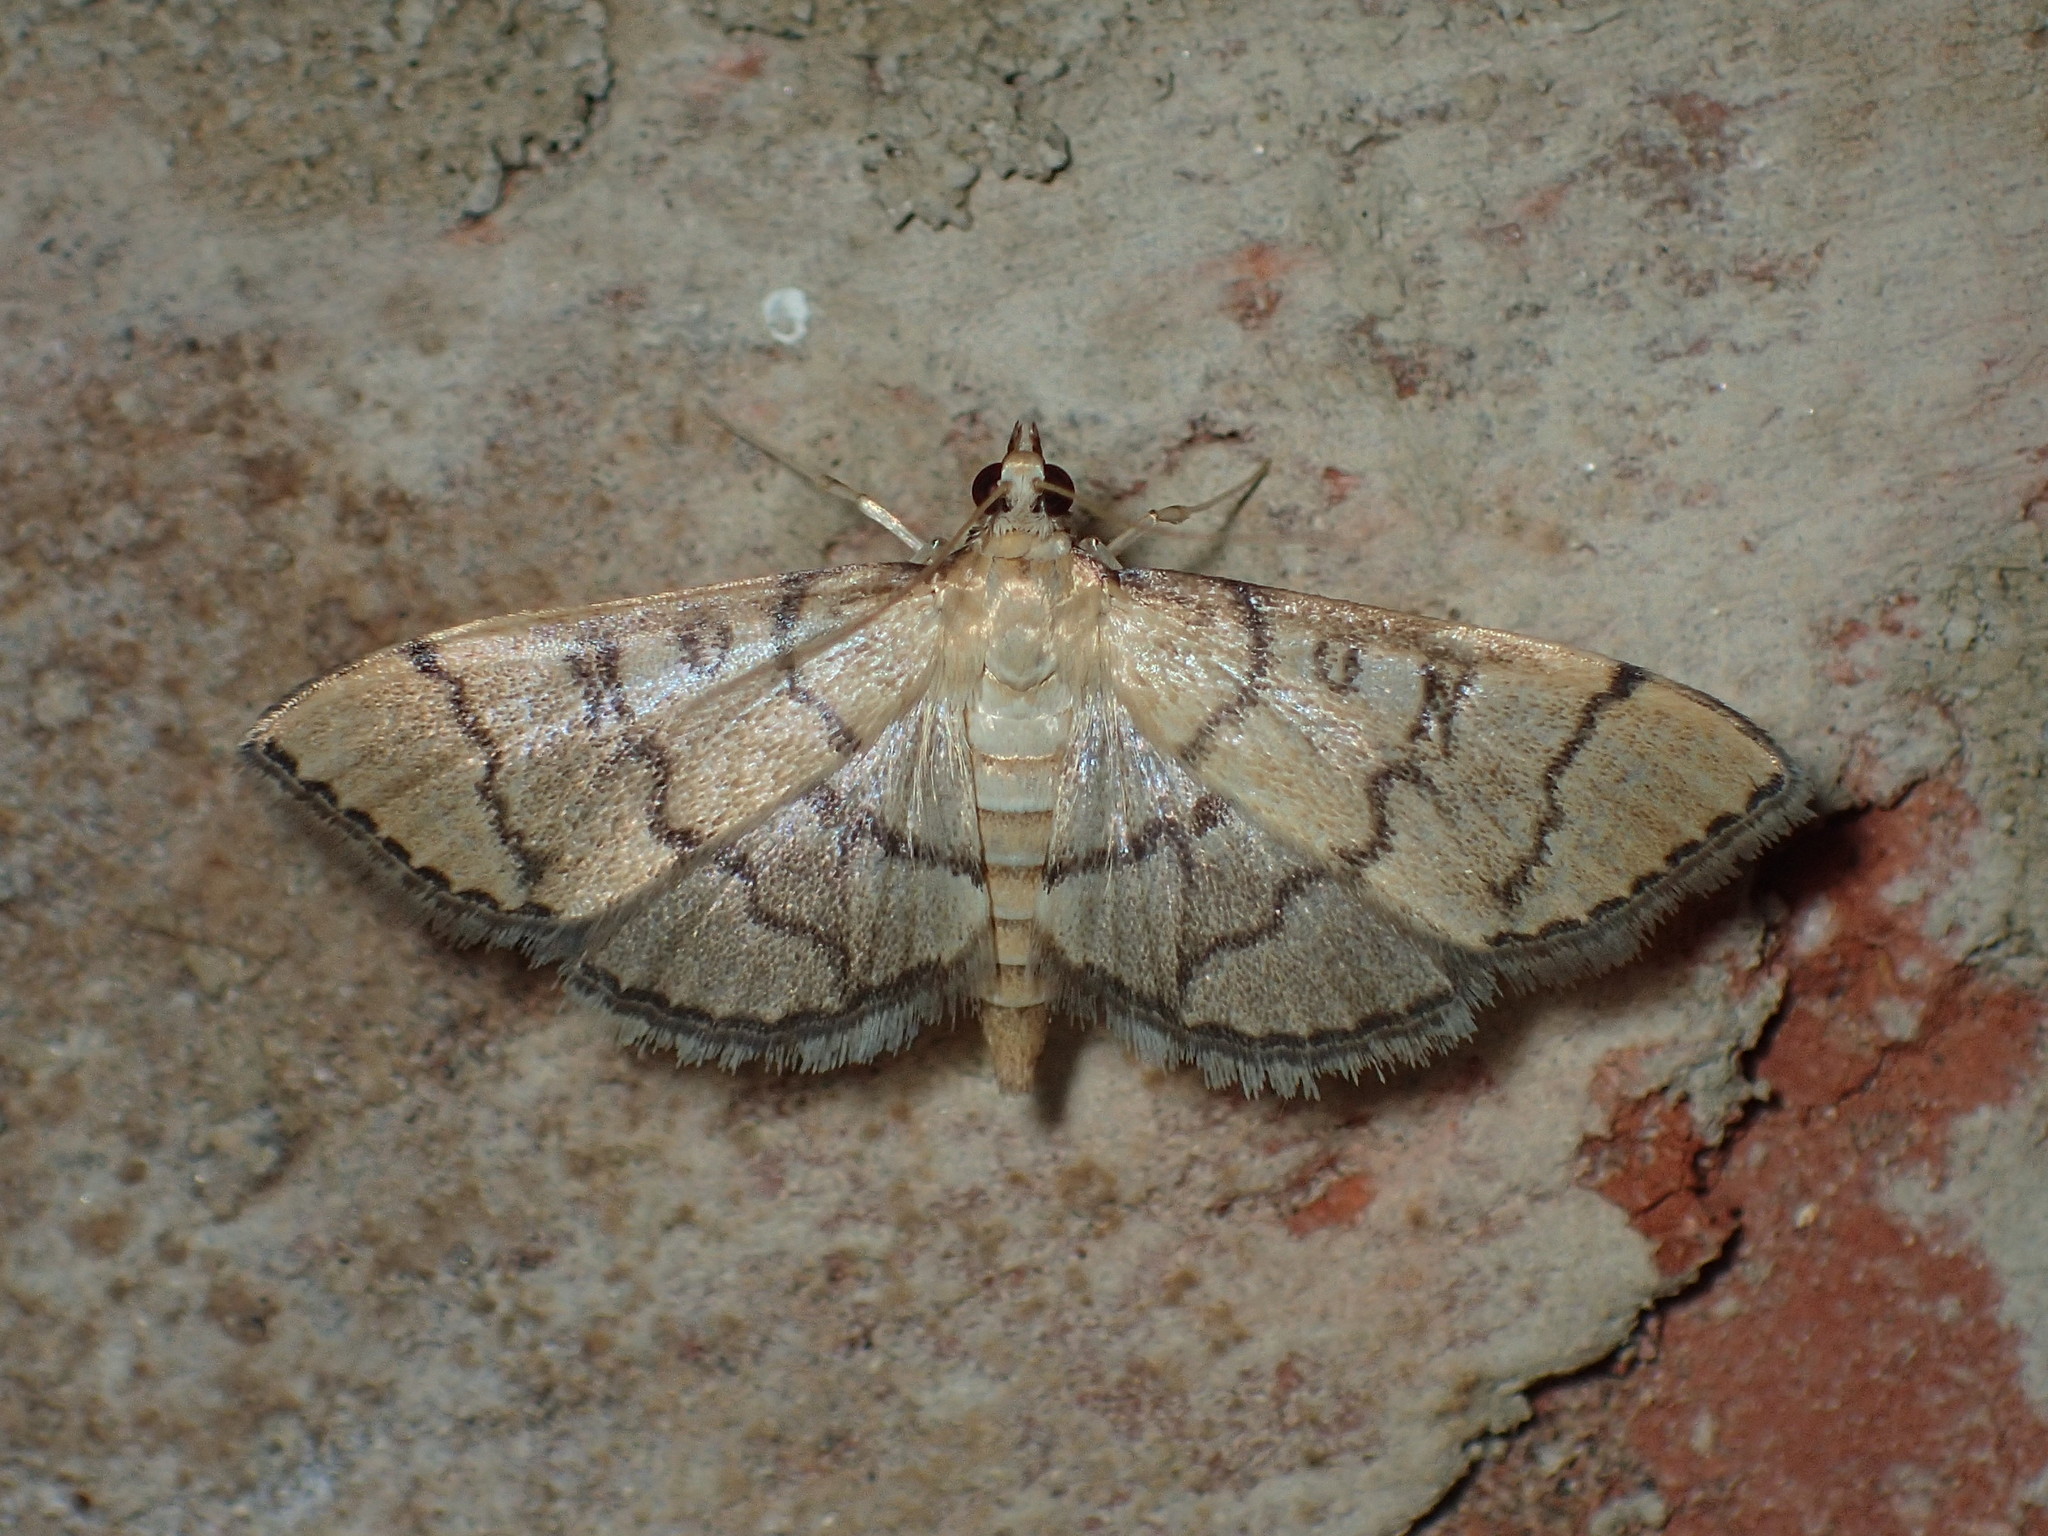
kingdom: Animalia
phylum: Arthropoda
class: Insecta
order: Lepidoptera
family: Crambidae
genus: Lamprosema
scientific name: Lamprosema Blepharomastix ranalis
